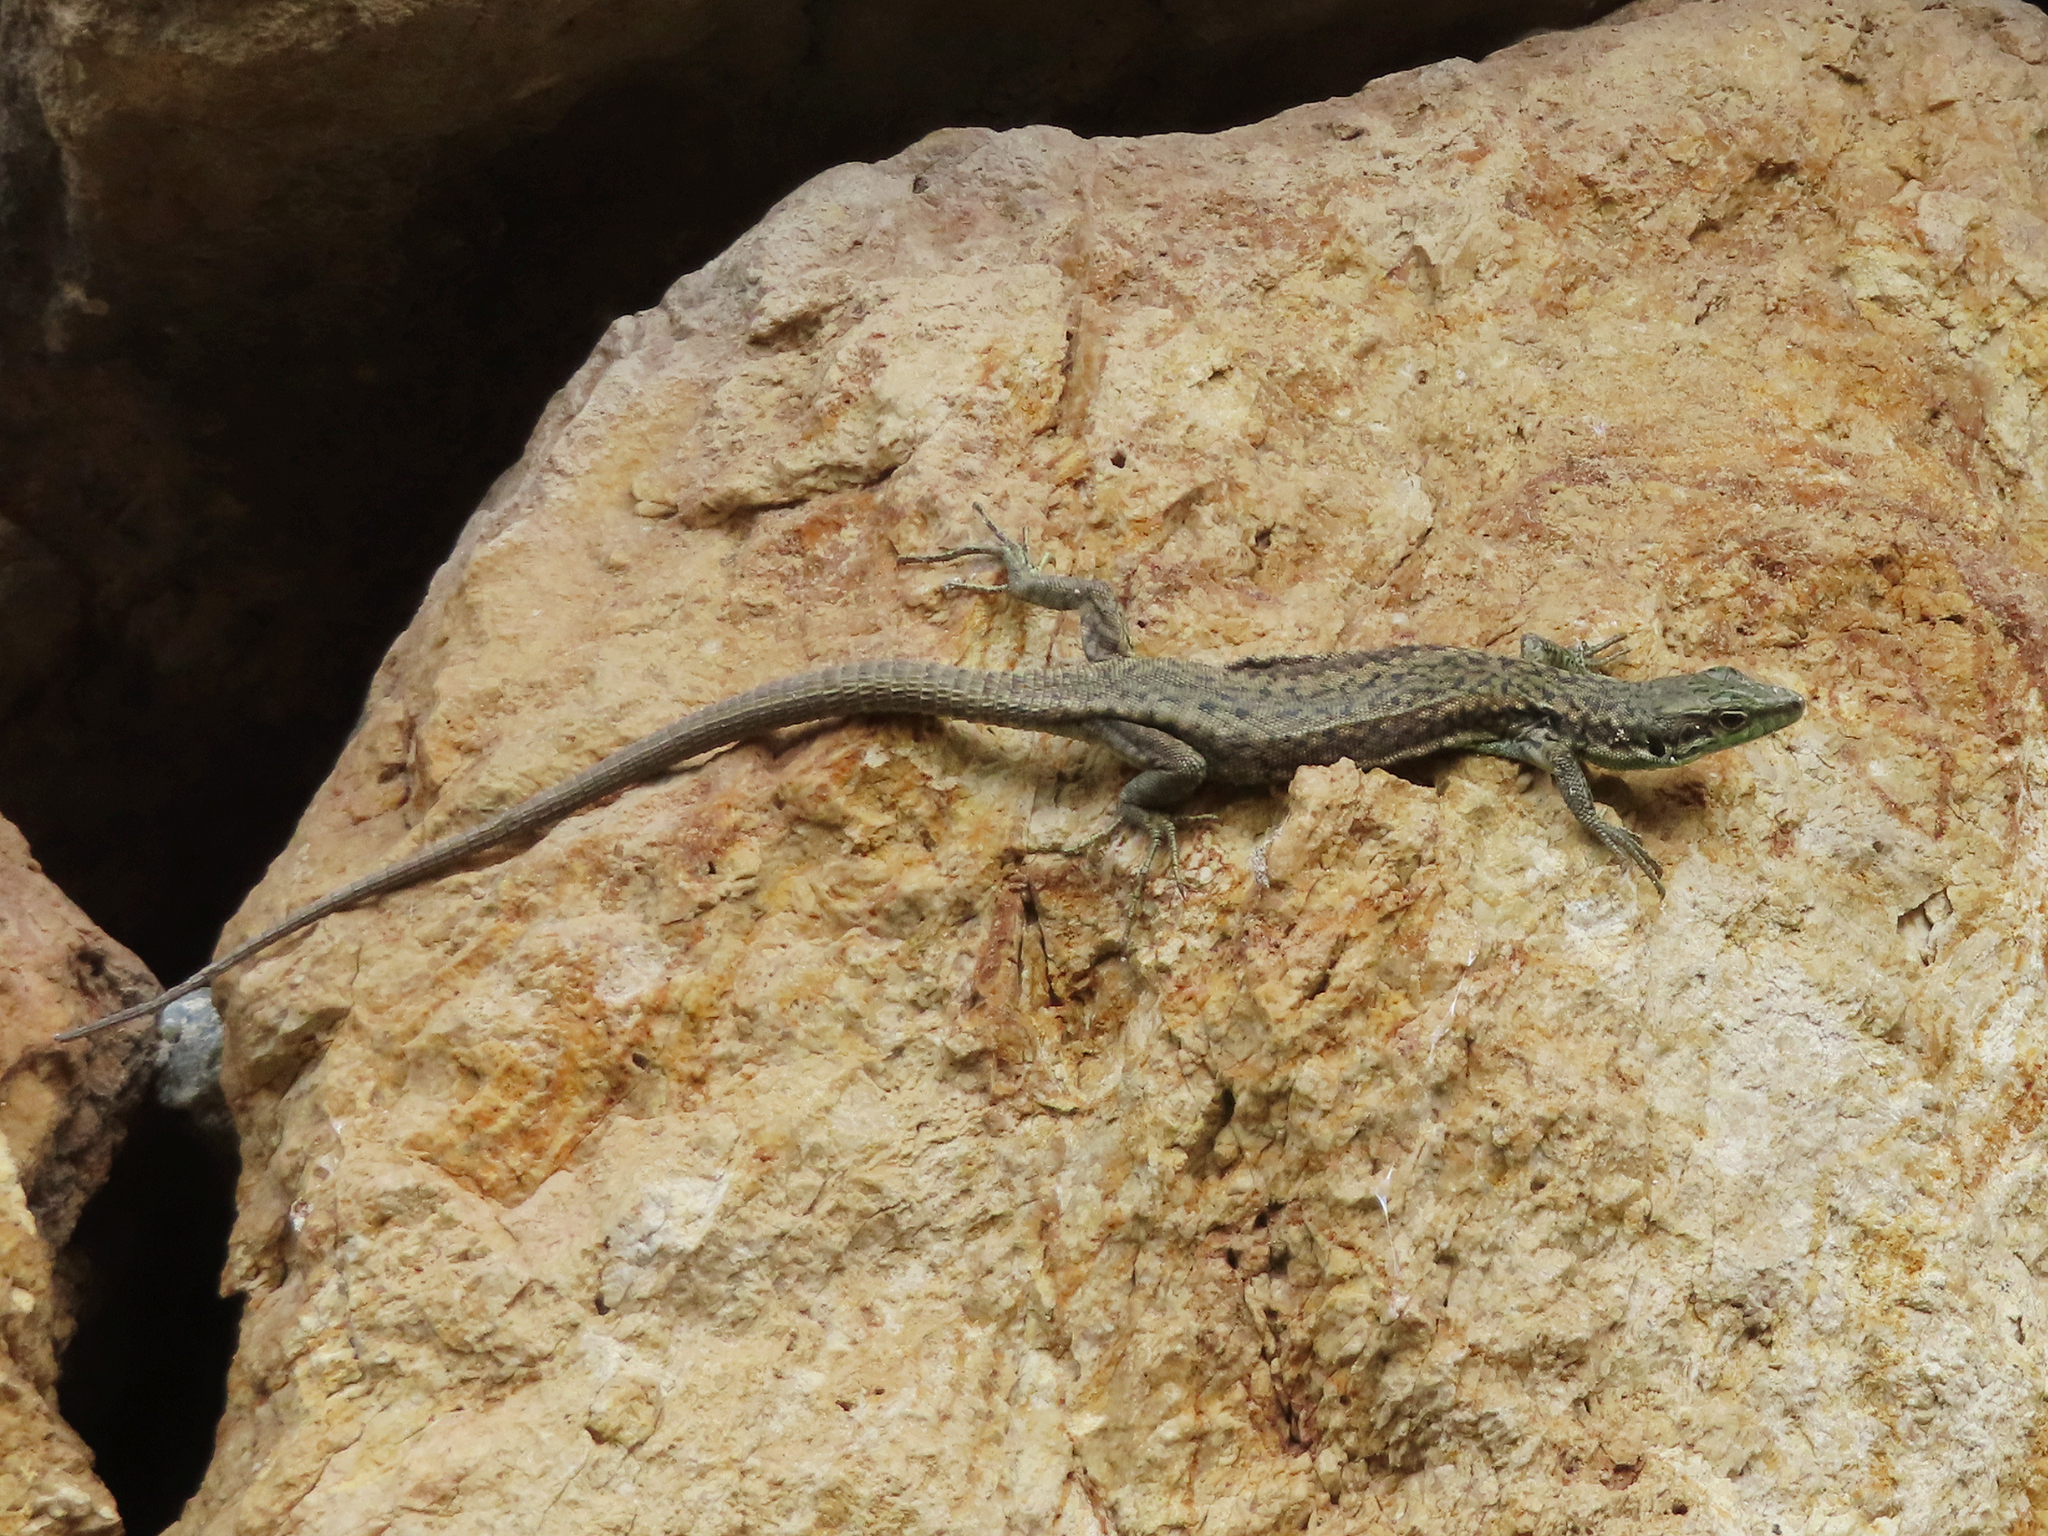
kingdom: Animalia
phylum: Chordata
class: Squamata
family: Lacertidae
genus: Darevskia
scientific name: Darevskia rostombekowi
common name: Rostombekow's lizard
